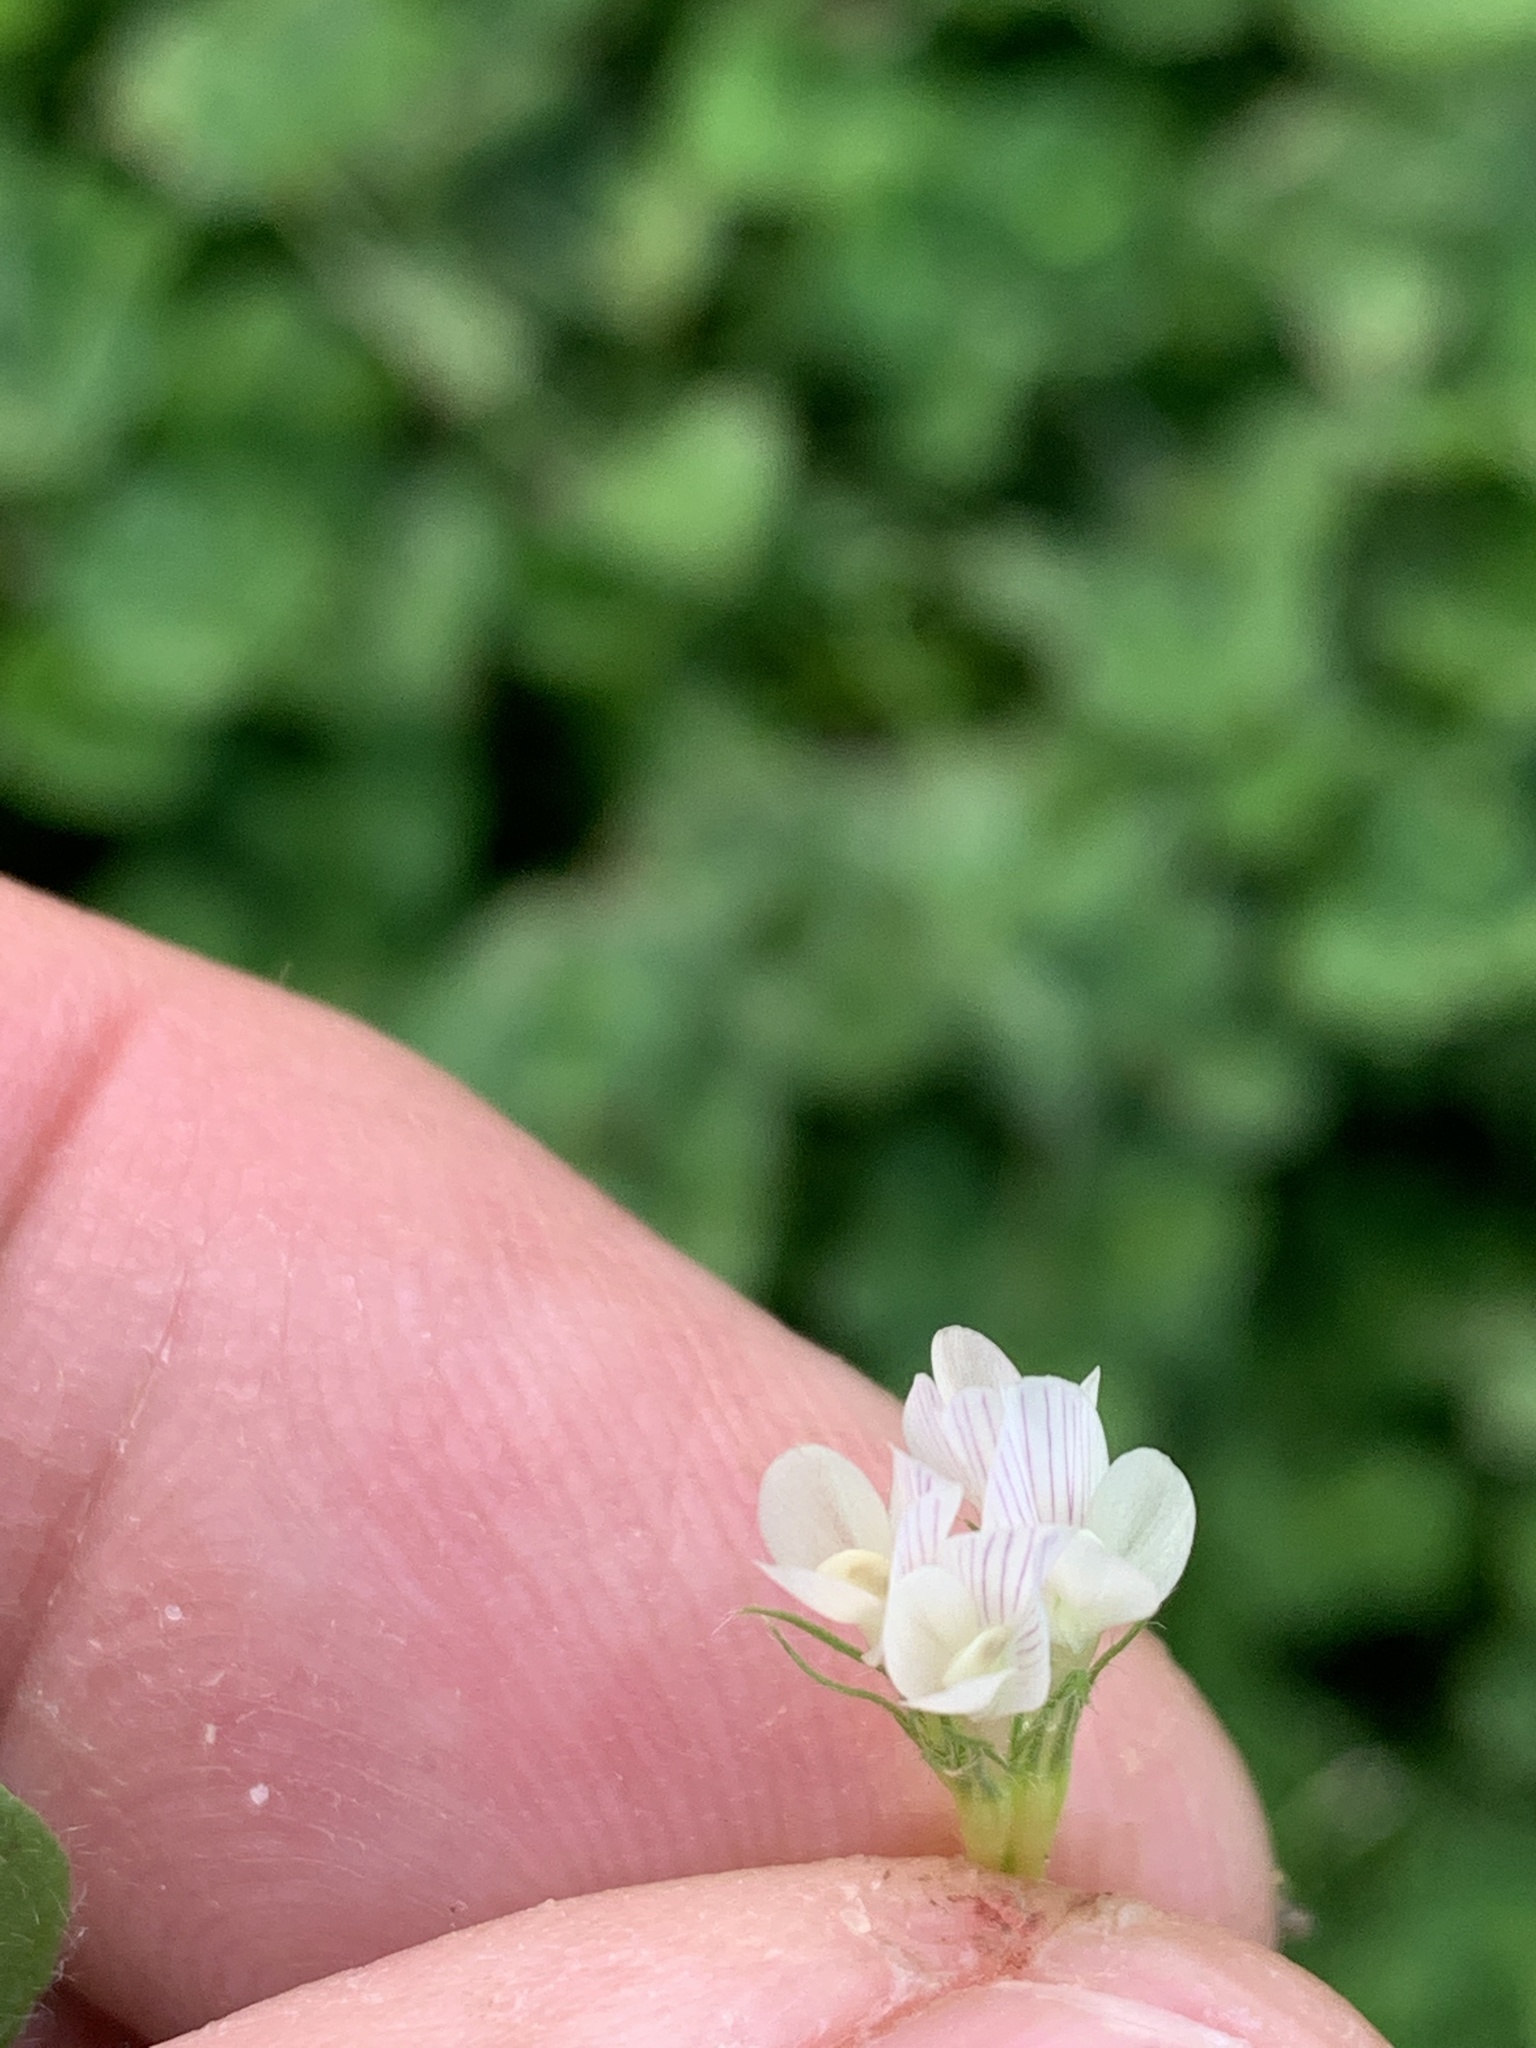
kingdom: Plantae
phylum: Tracheophyta
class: Magnoliopsida
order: Fabales
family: Fabaceae
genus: Trifolium
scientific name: Trifolium subterraneum
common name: Subterranean clover
